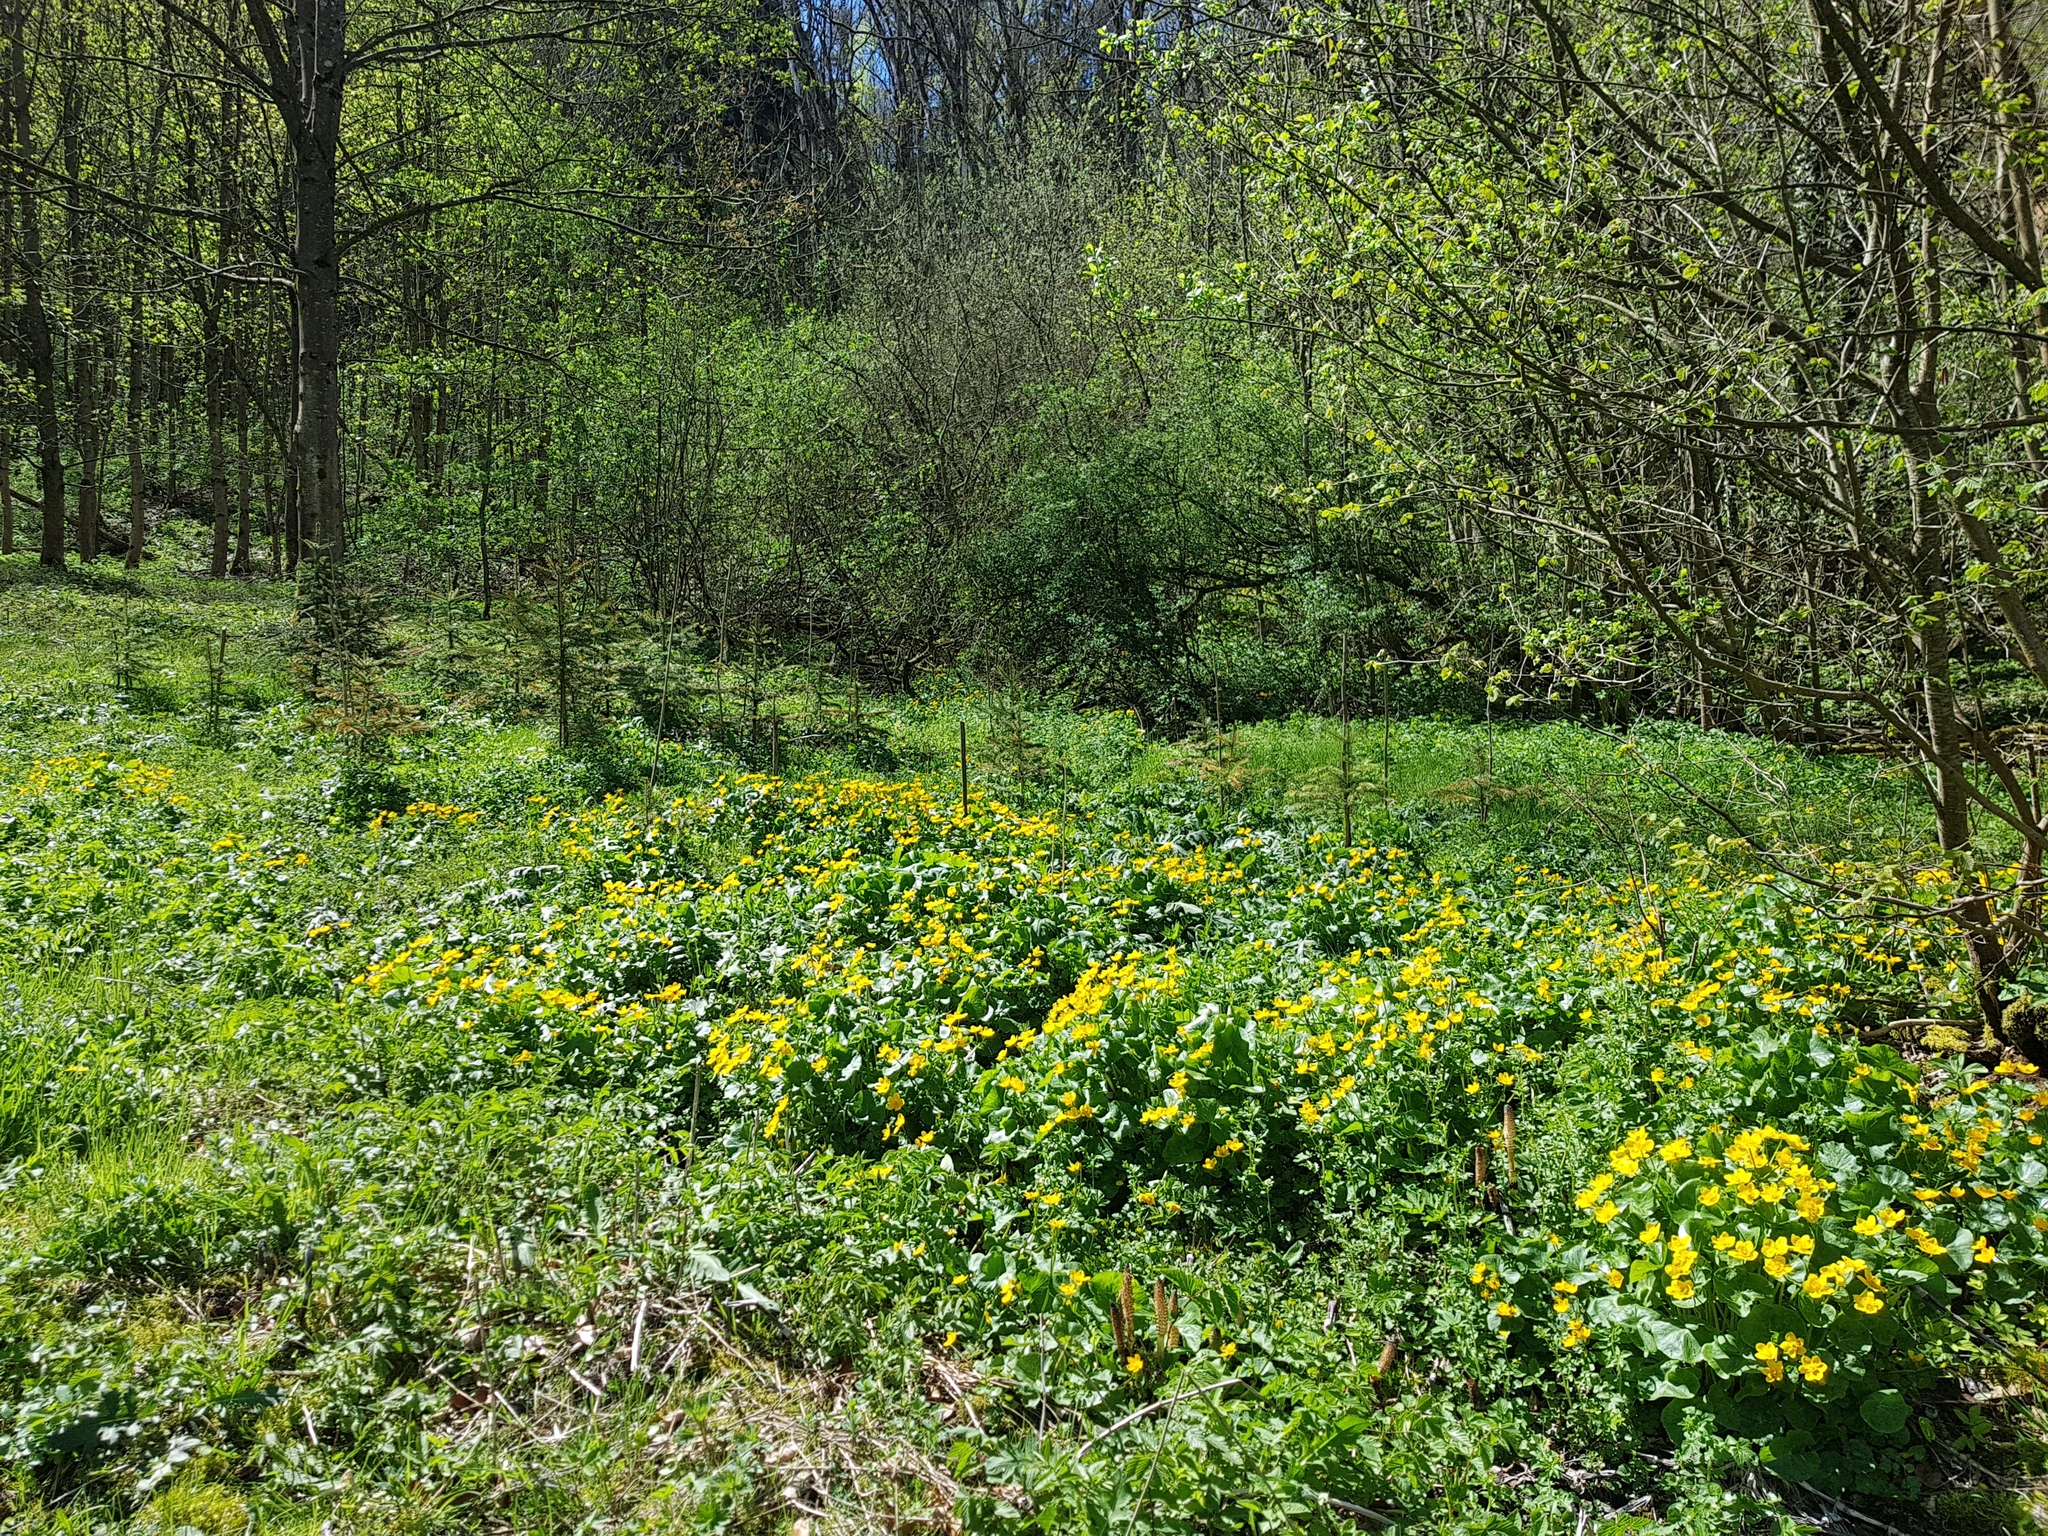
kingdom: Plantae
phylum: Tracheophyta
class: Magnoliopsida
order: Ranunculales
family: Ranunculaceae
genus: Caltha
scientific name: Caltha palustris
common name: Marsh marigold
